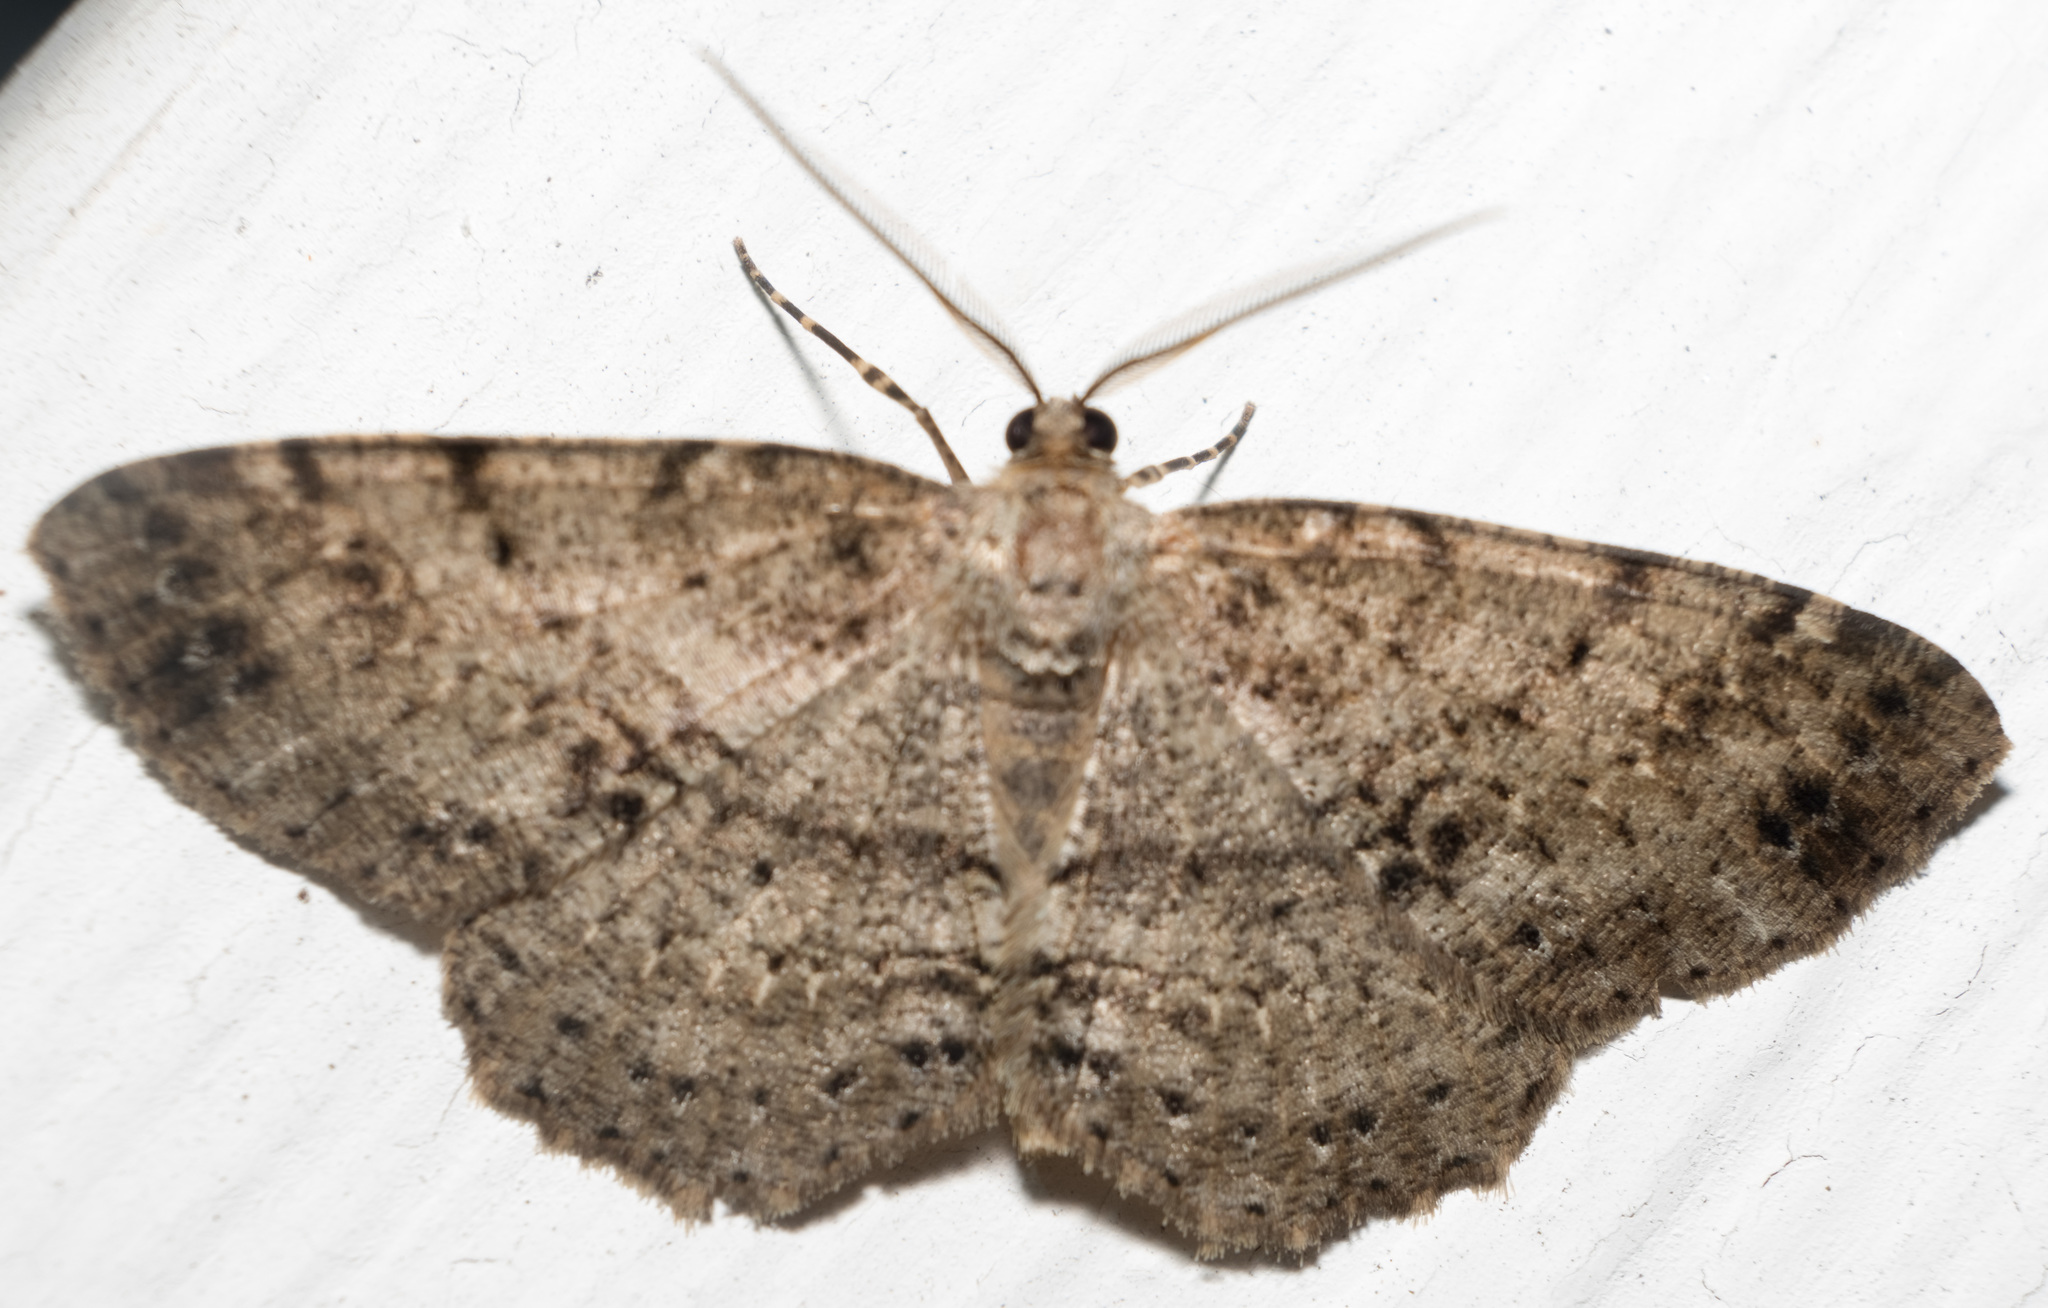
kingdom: Animalia
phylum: Arthropoda
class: Insecta
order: Lepidoptera
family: Geometridae
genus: Melanolophia
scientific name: Melanolophia canadaria
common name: Canadian melanolophia
